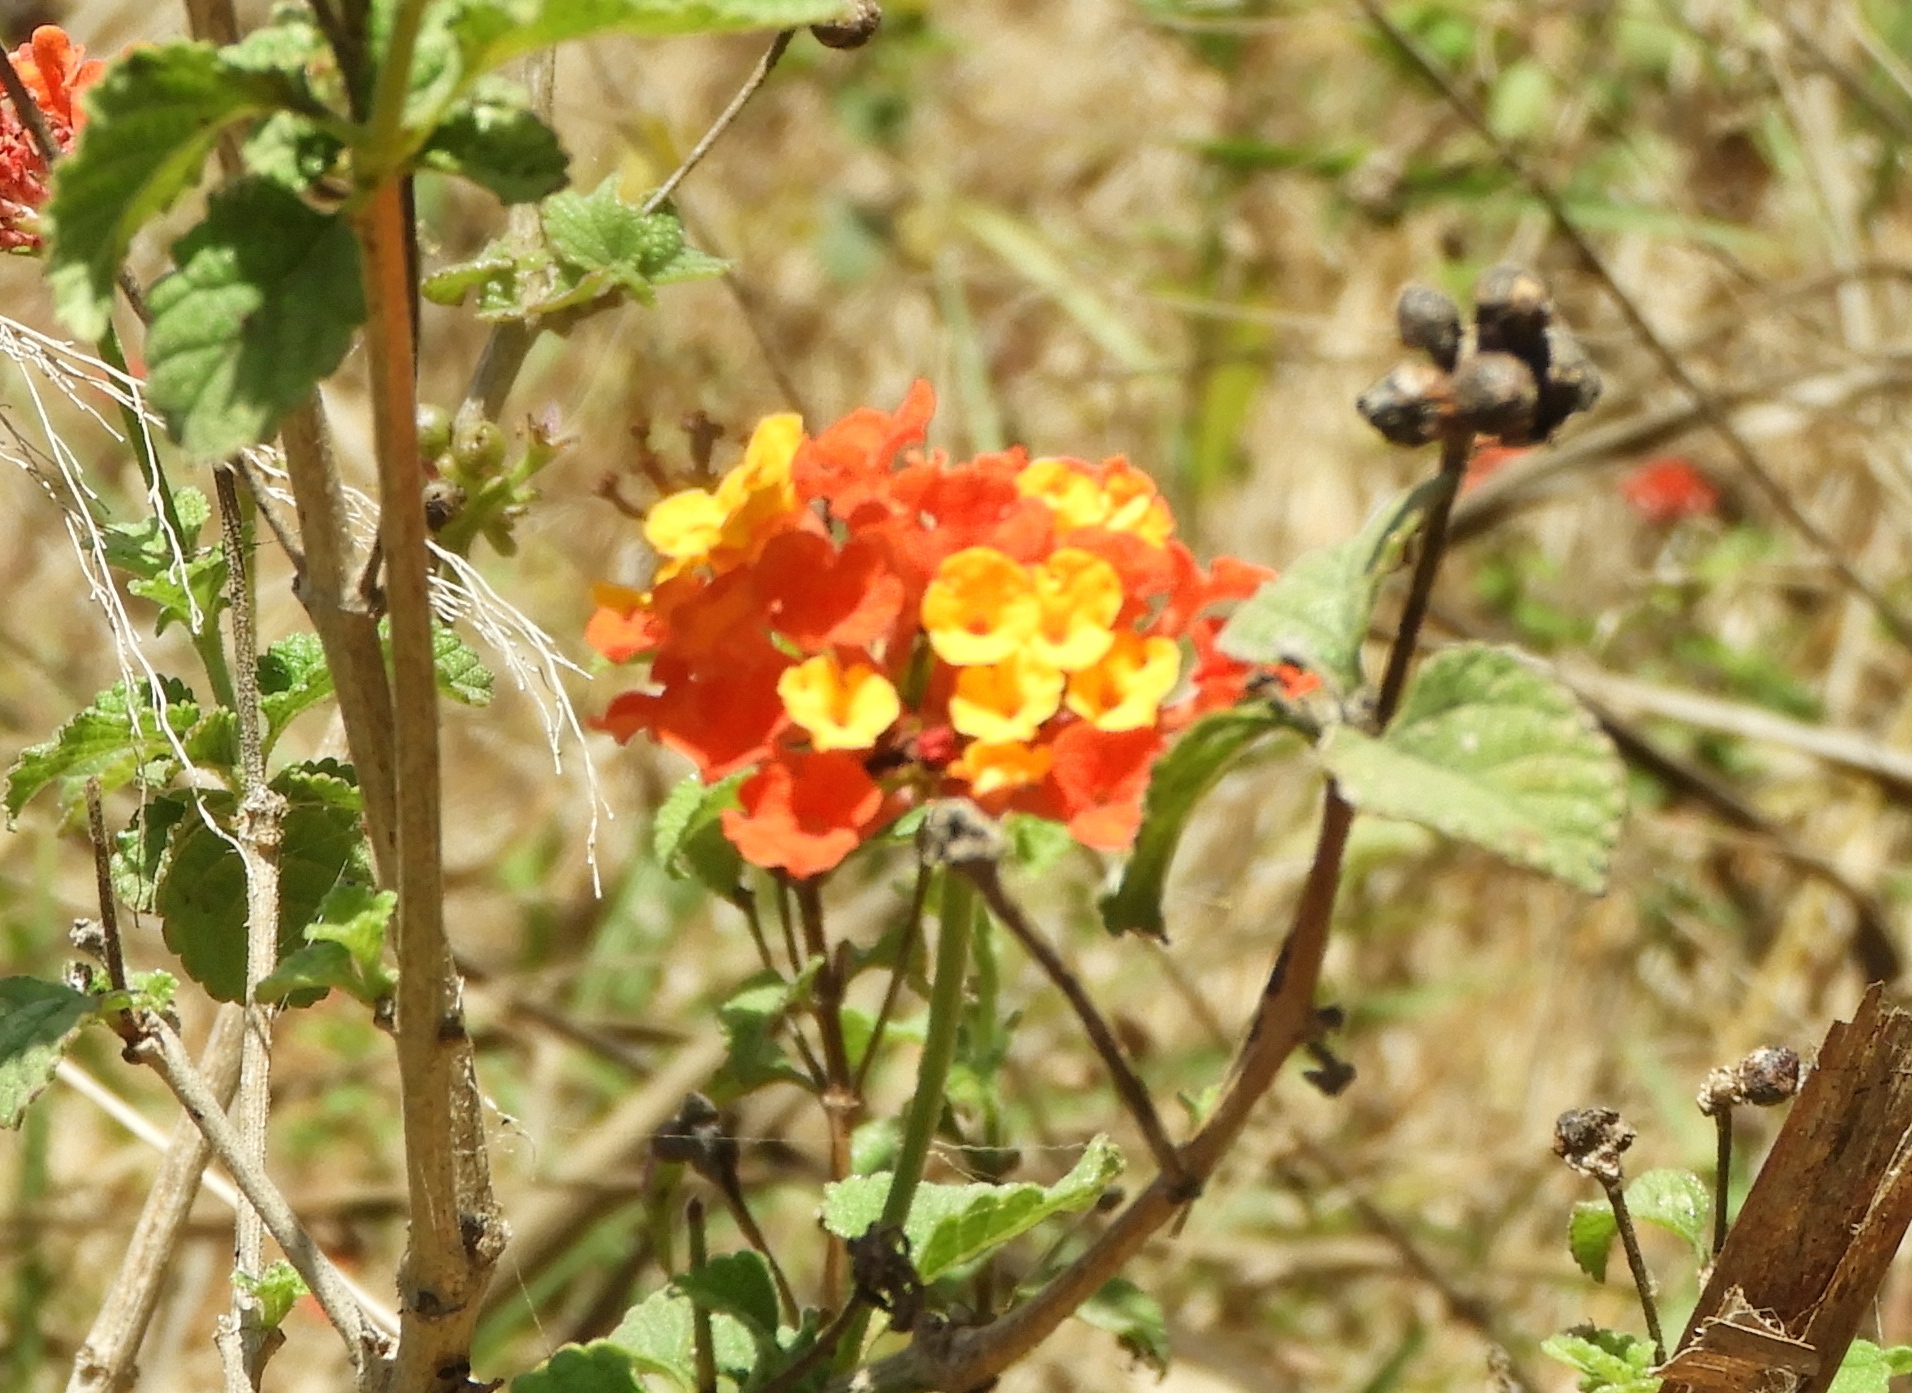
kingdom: Plantae
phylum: Tracheophyta
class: Magnoliopsida
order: Lamiales
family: Verbenaceae
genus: Lantana
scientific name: Lantana camara
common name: Lantana
